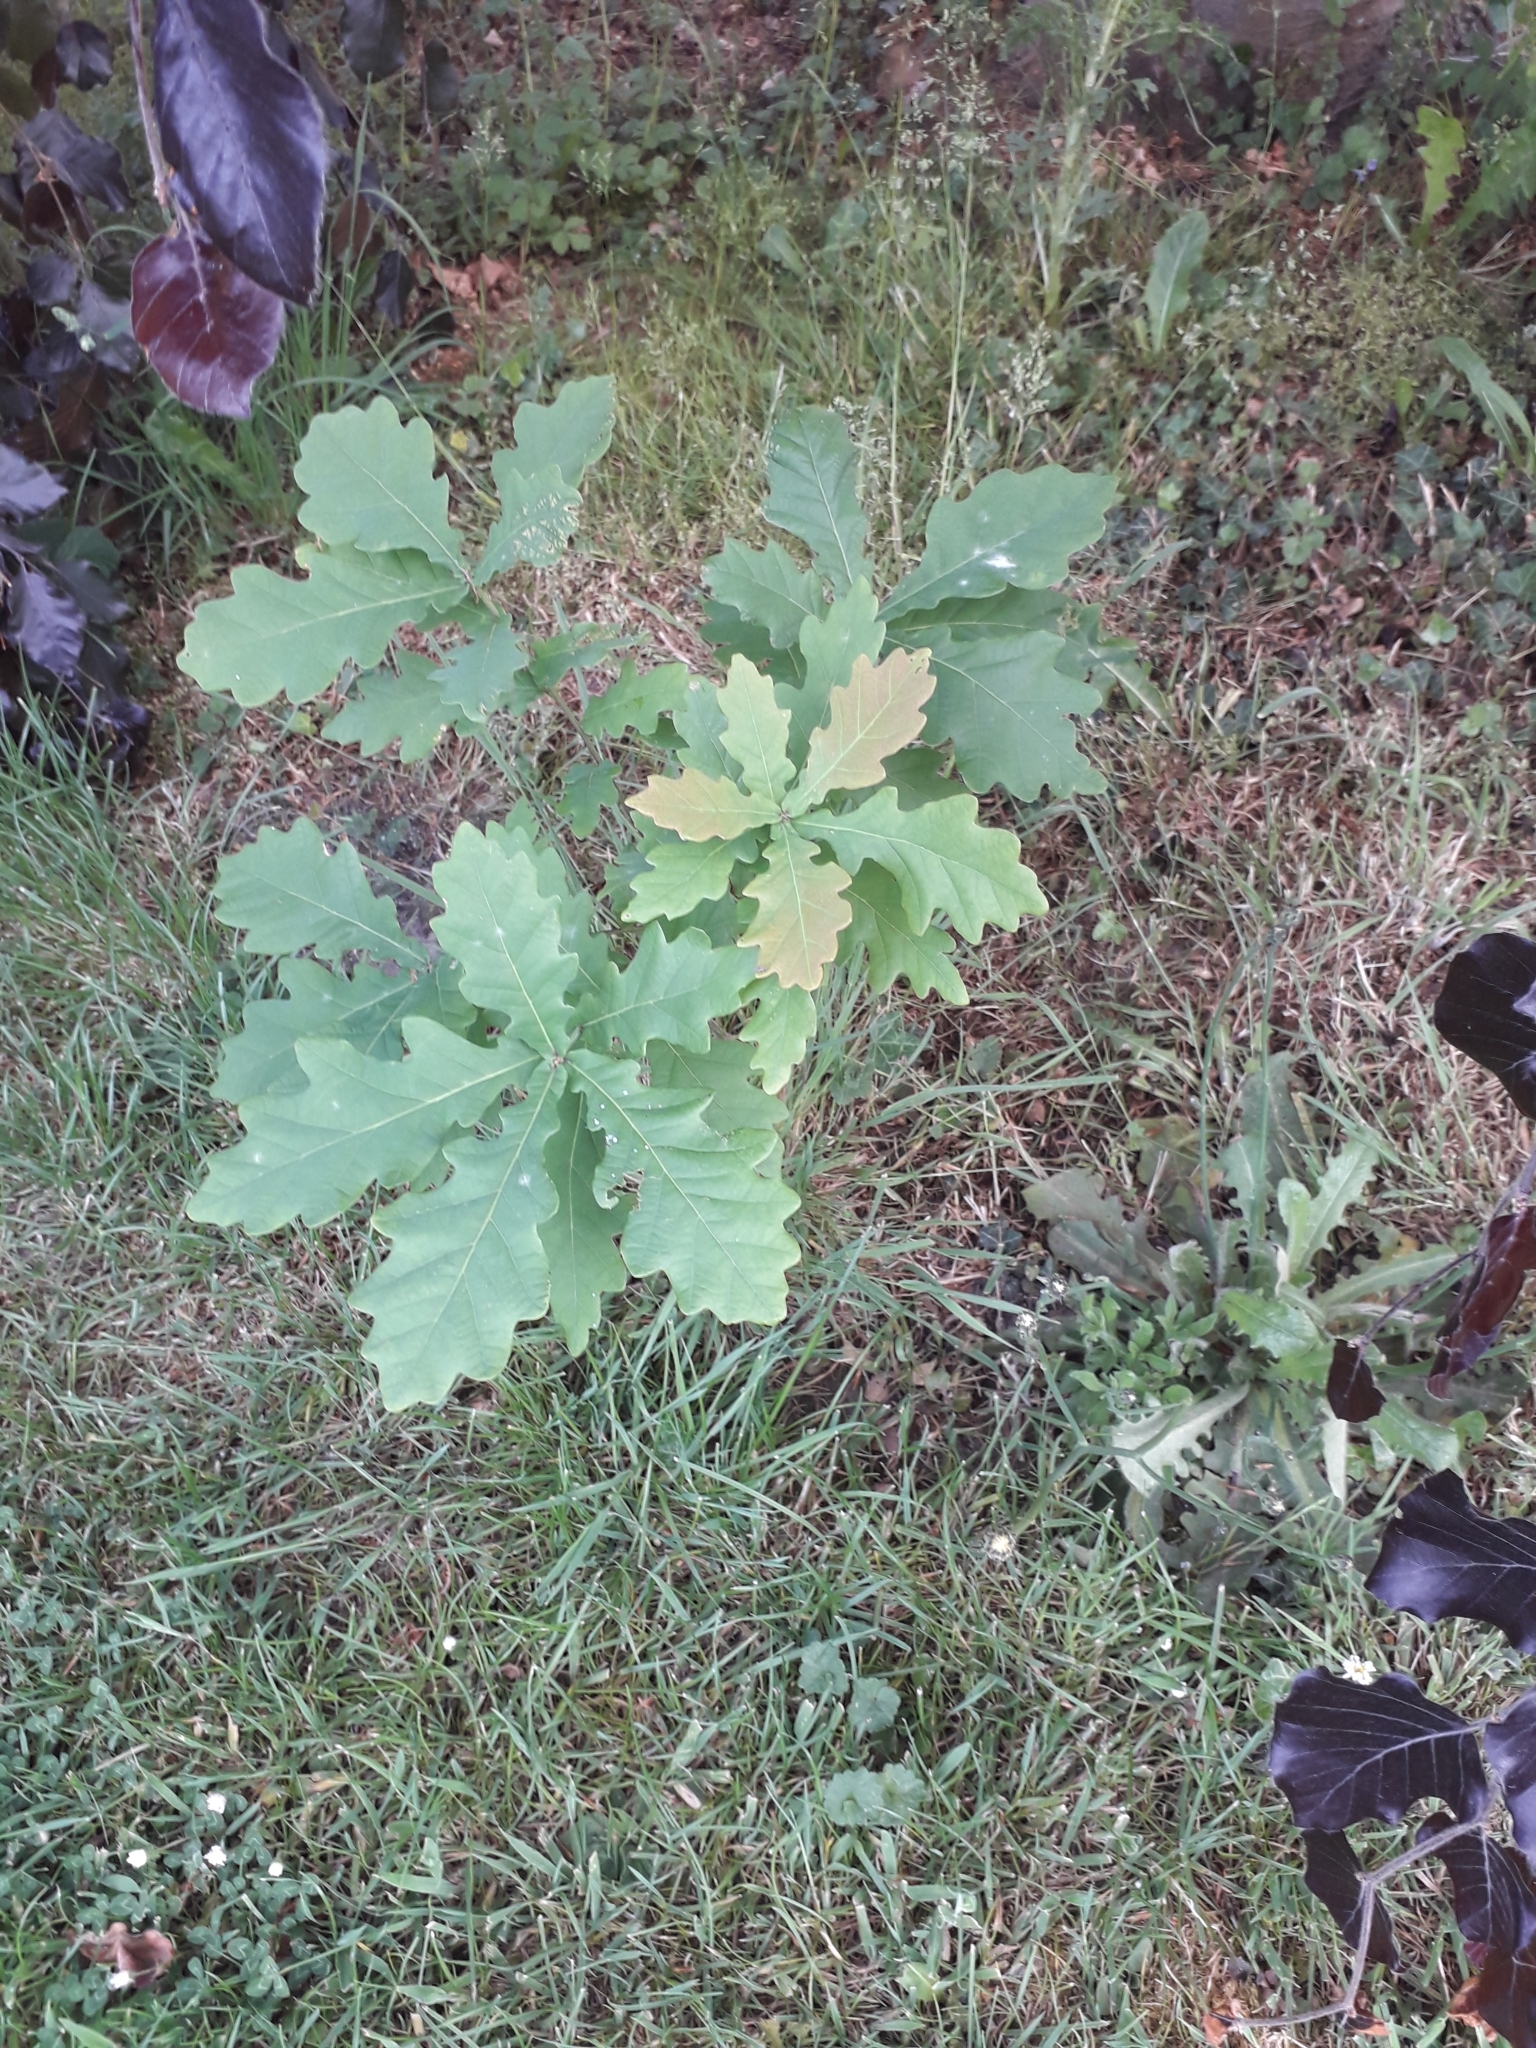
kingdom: Plantae
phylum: Tracheophyta
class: Magnoliopsida
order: Fagales
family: Fagaceae
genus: Quercus
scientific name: Quercus robur
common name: Pedunculate oak
